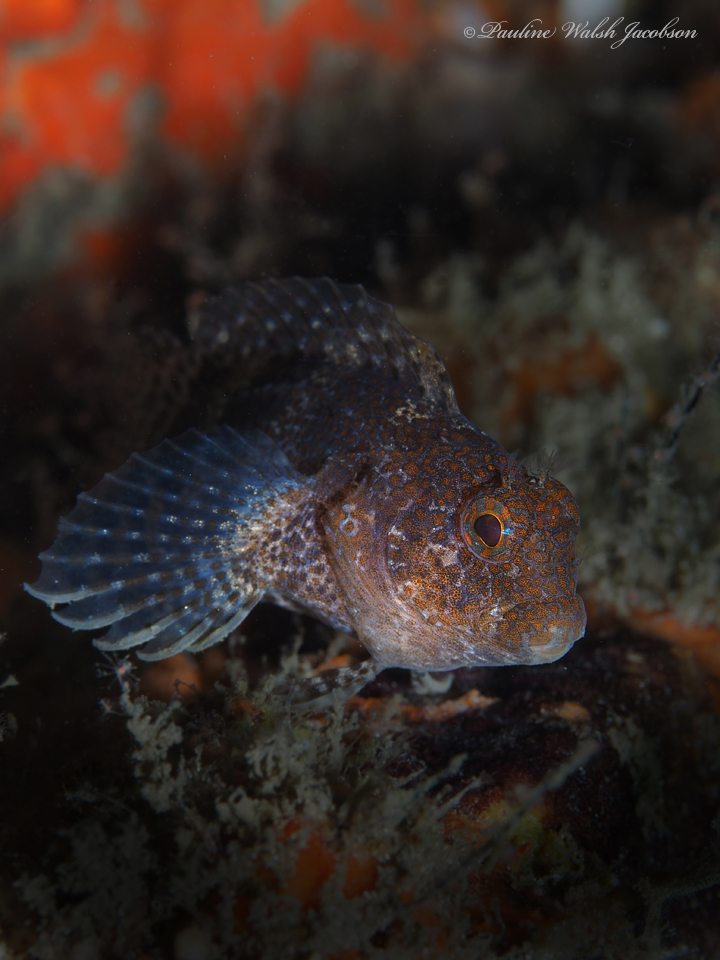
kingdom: Animalia
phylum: Chordata
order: Perciformes
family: Blenniidae
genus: Hypleurochilus
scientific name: Hypleurochilus bermudensis
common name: Barred blenny
